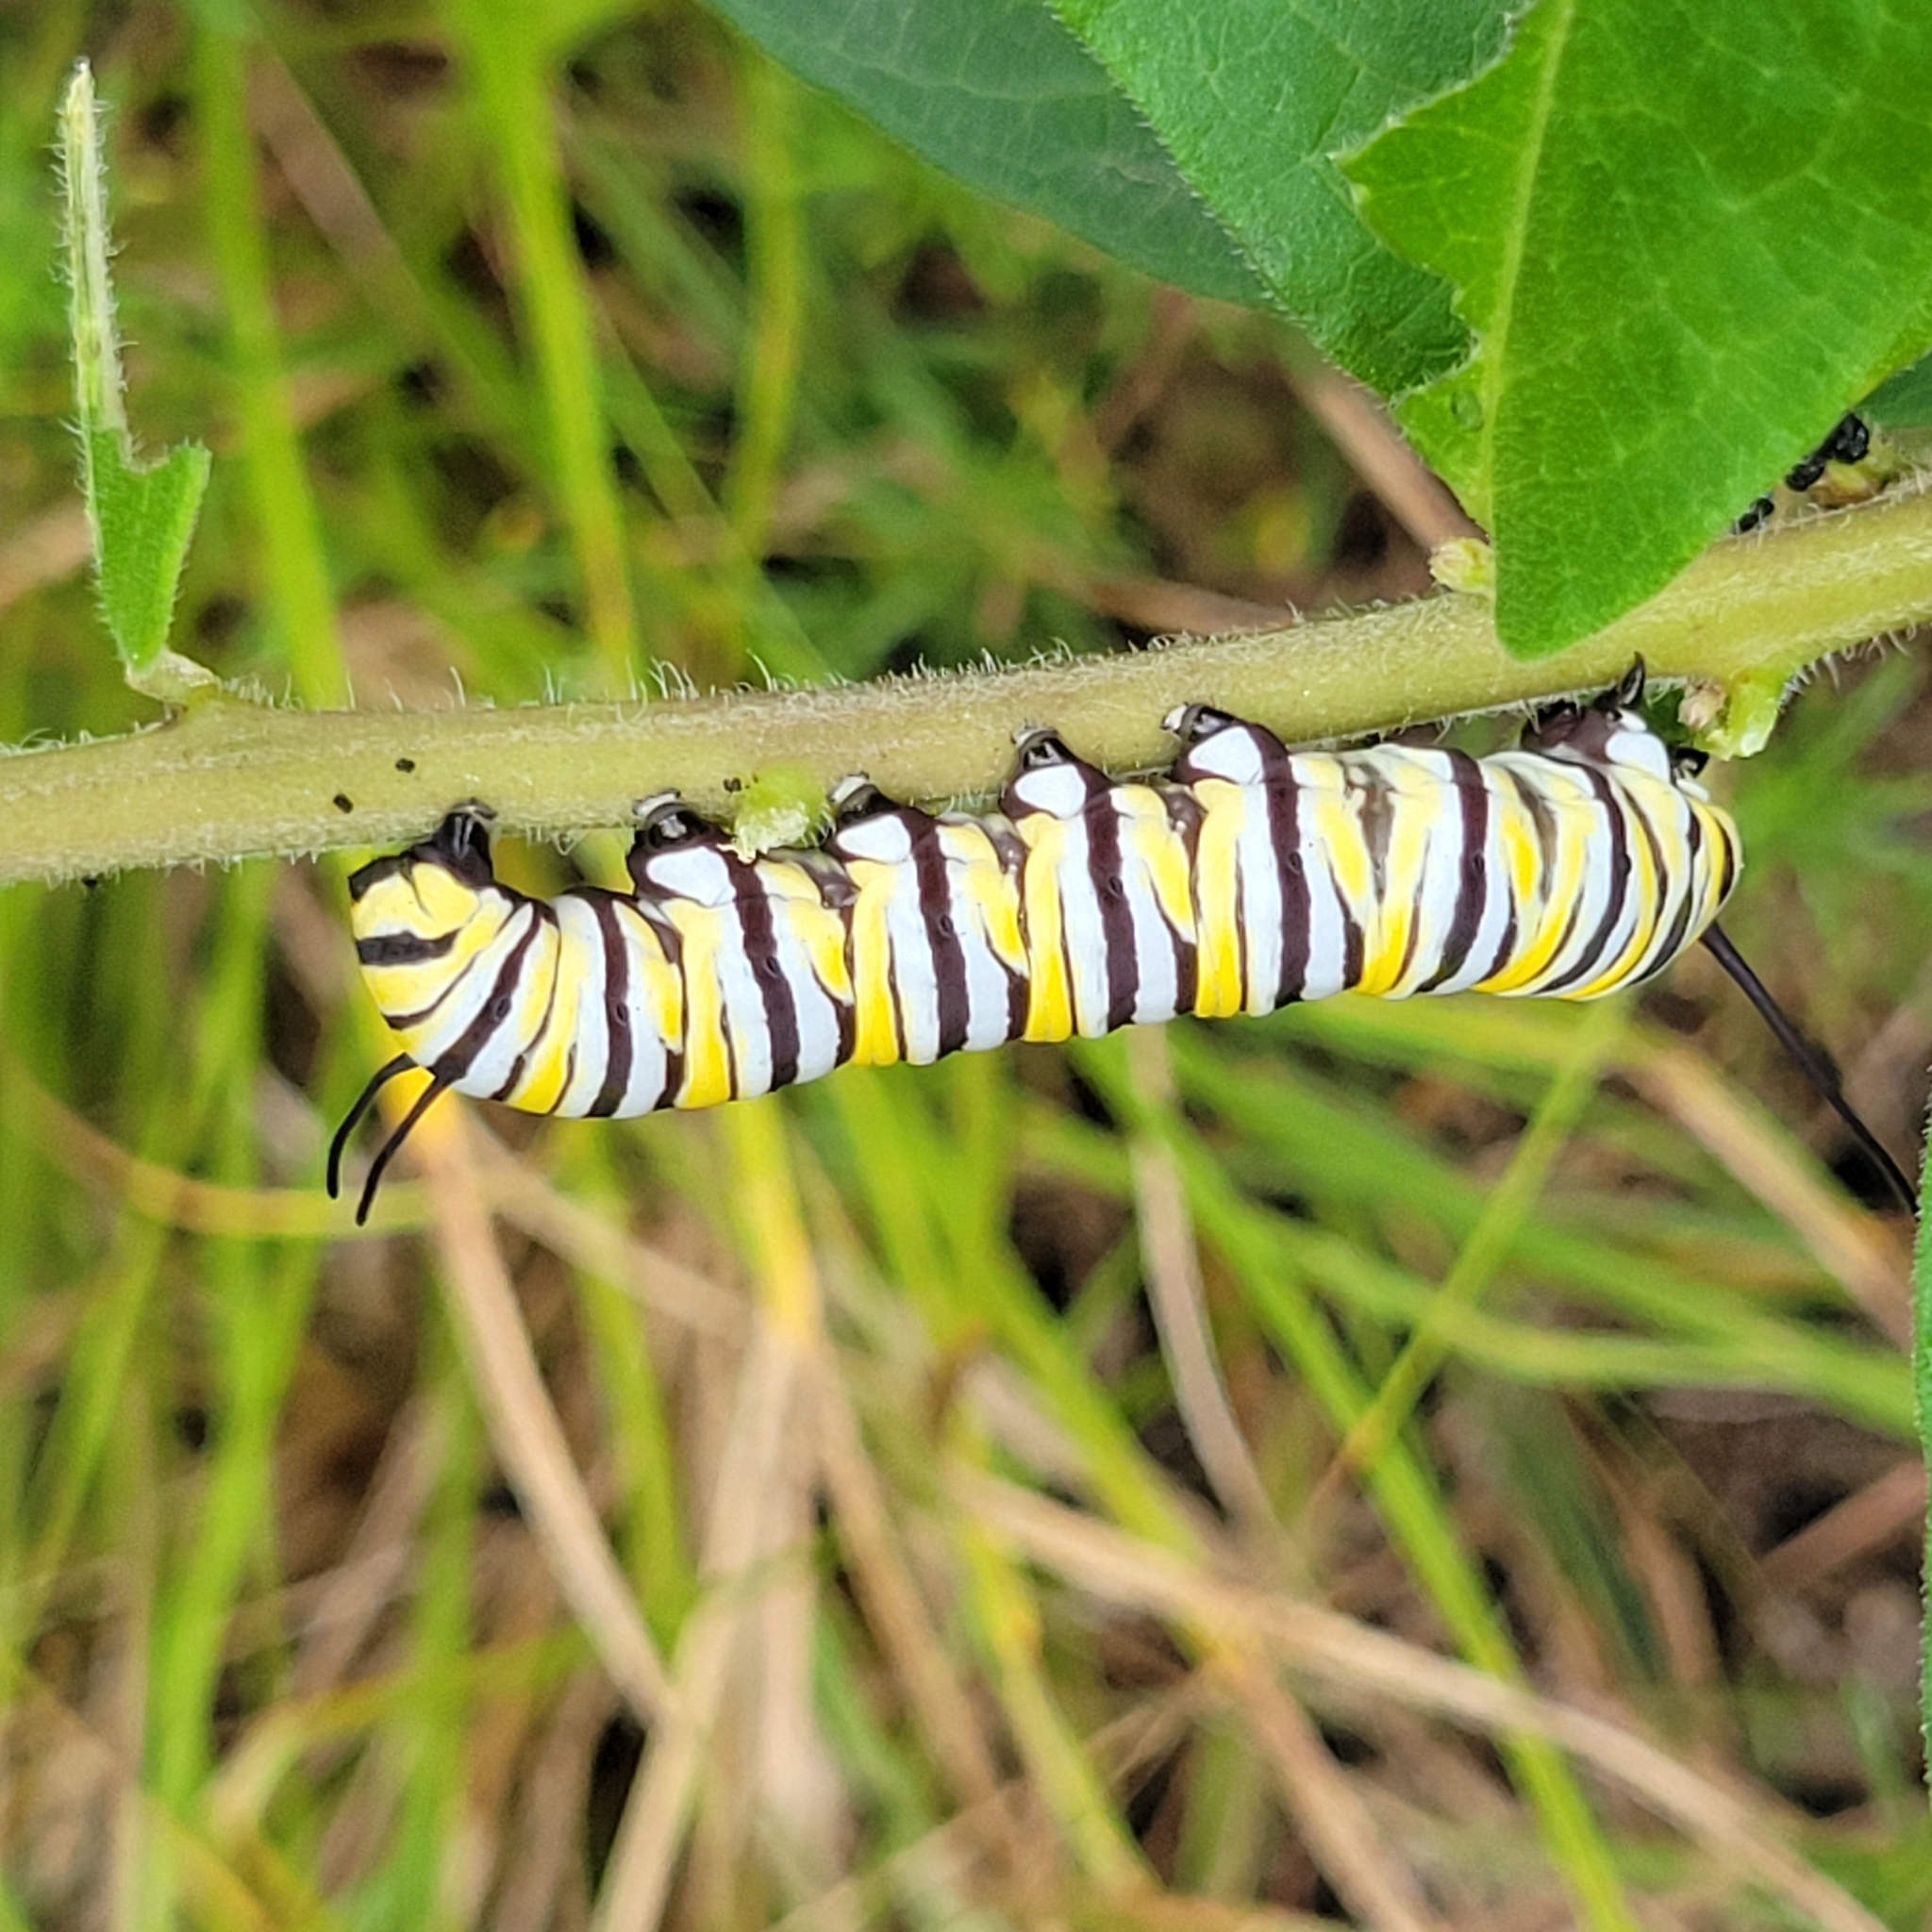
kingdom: Animalia
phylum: Arthropoda
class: Insecta
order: Lepidoptera
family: Nymphalidae
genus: Danaus
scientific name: Danaus plexippus
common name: Monarch
